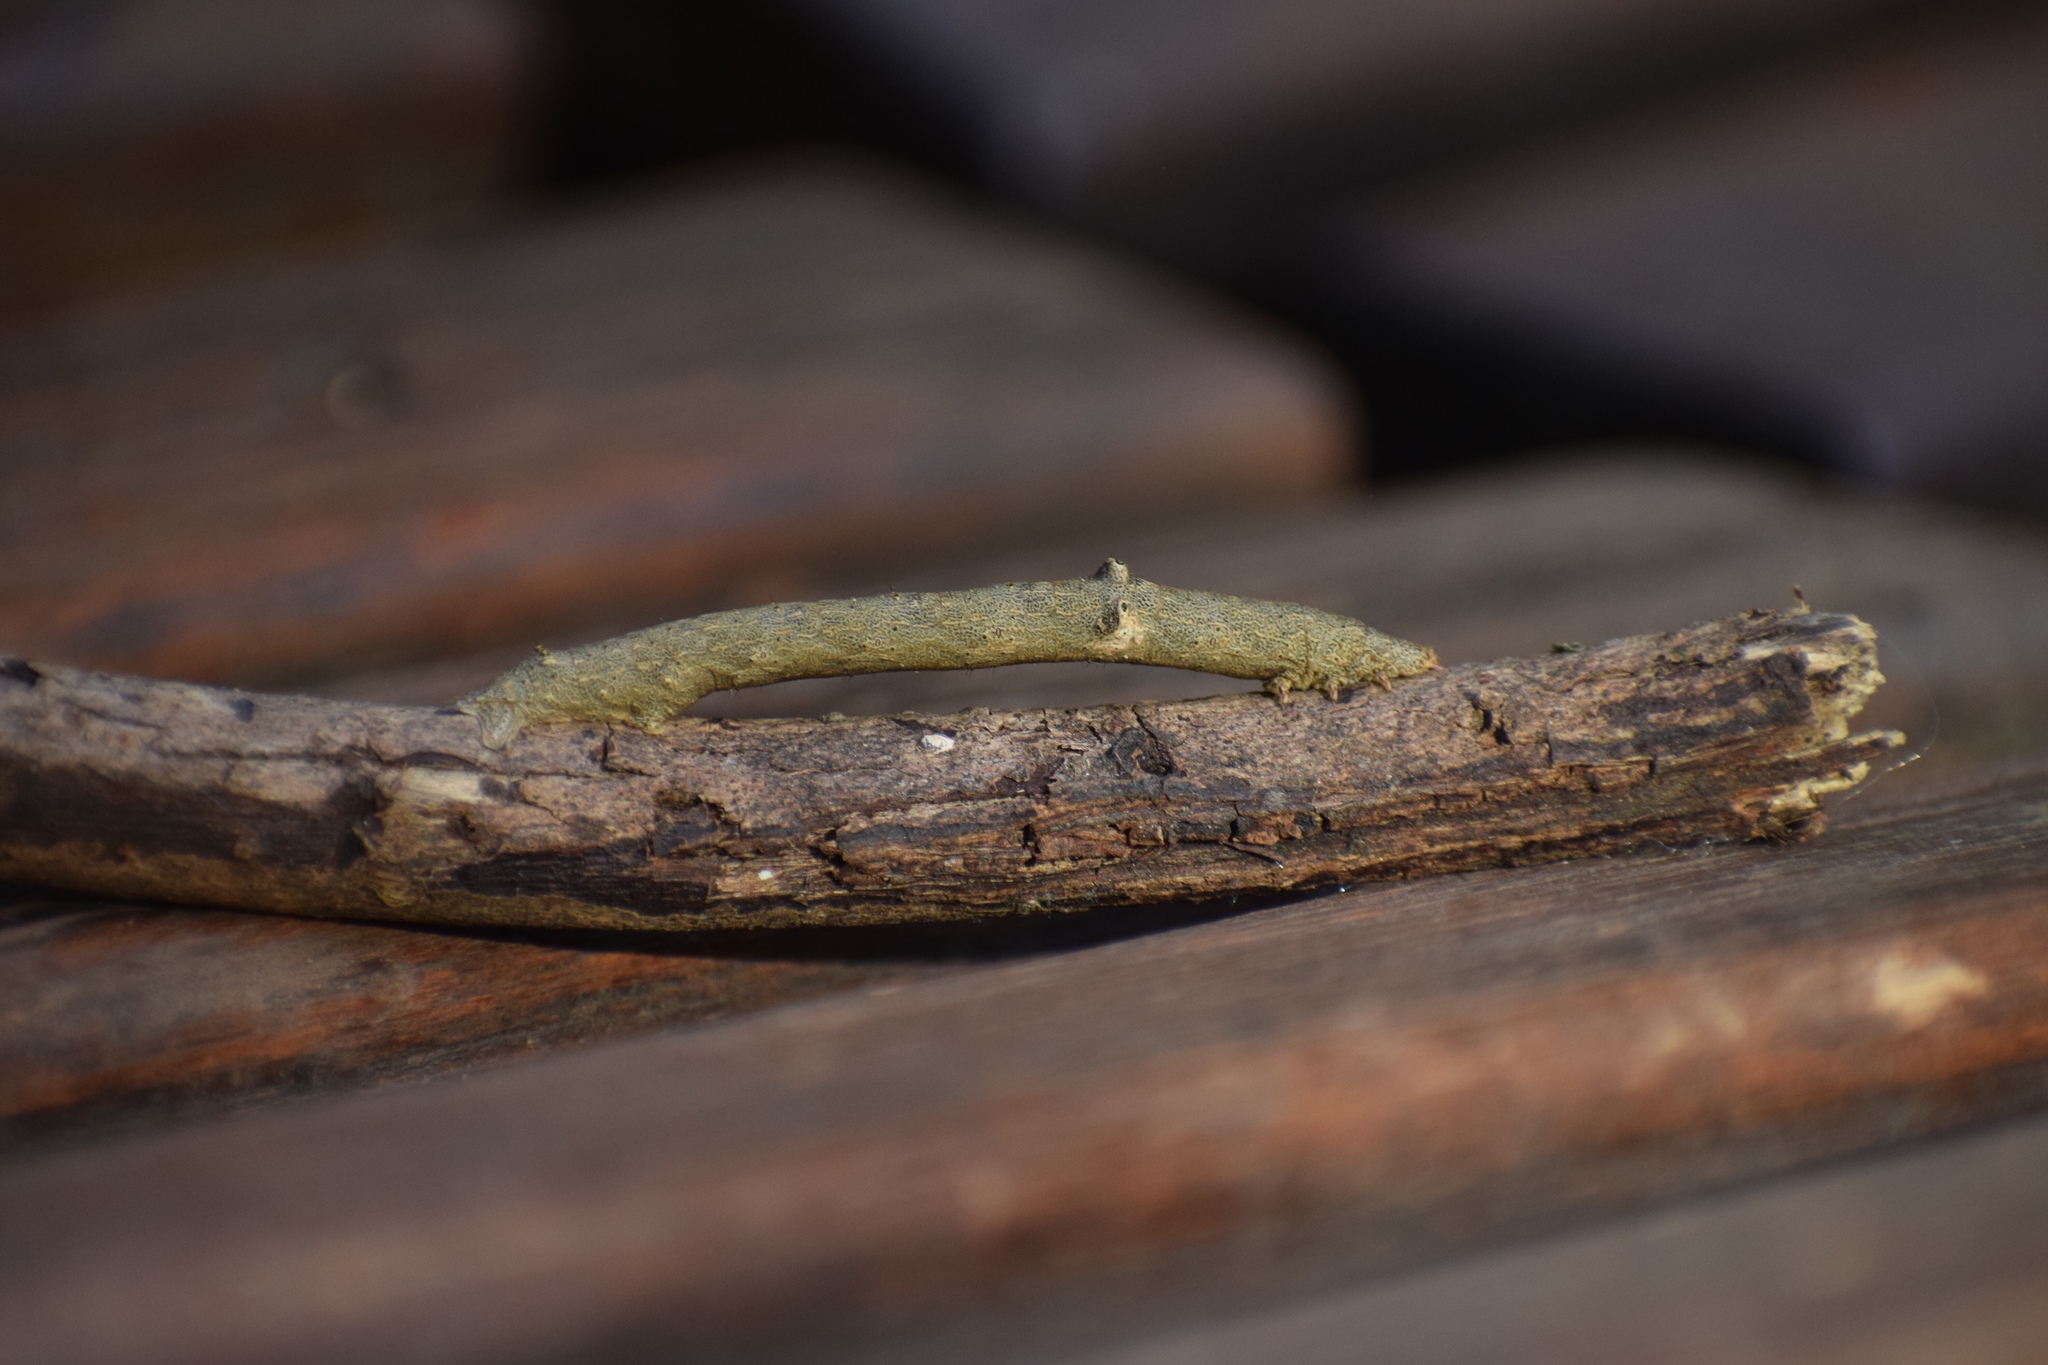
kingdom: Animalia
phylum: Arthropoda
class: Insecta
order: Lepidoptera
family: Geometridae
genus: Ascotis
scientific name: Ascotis reciprocaria
